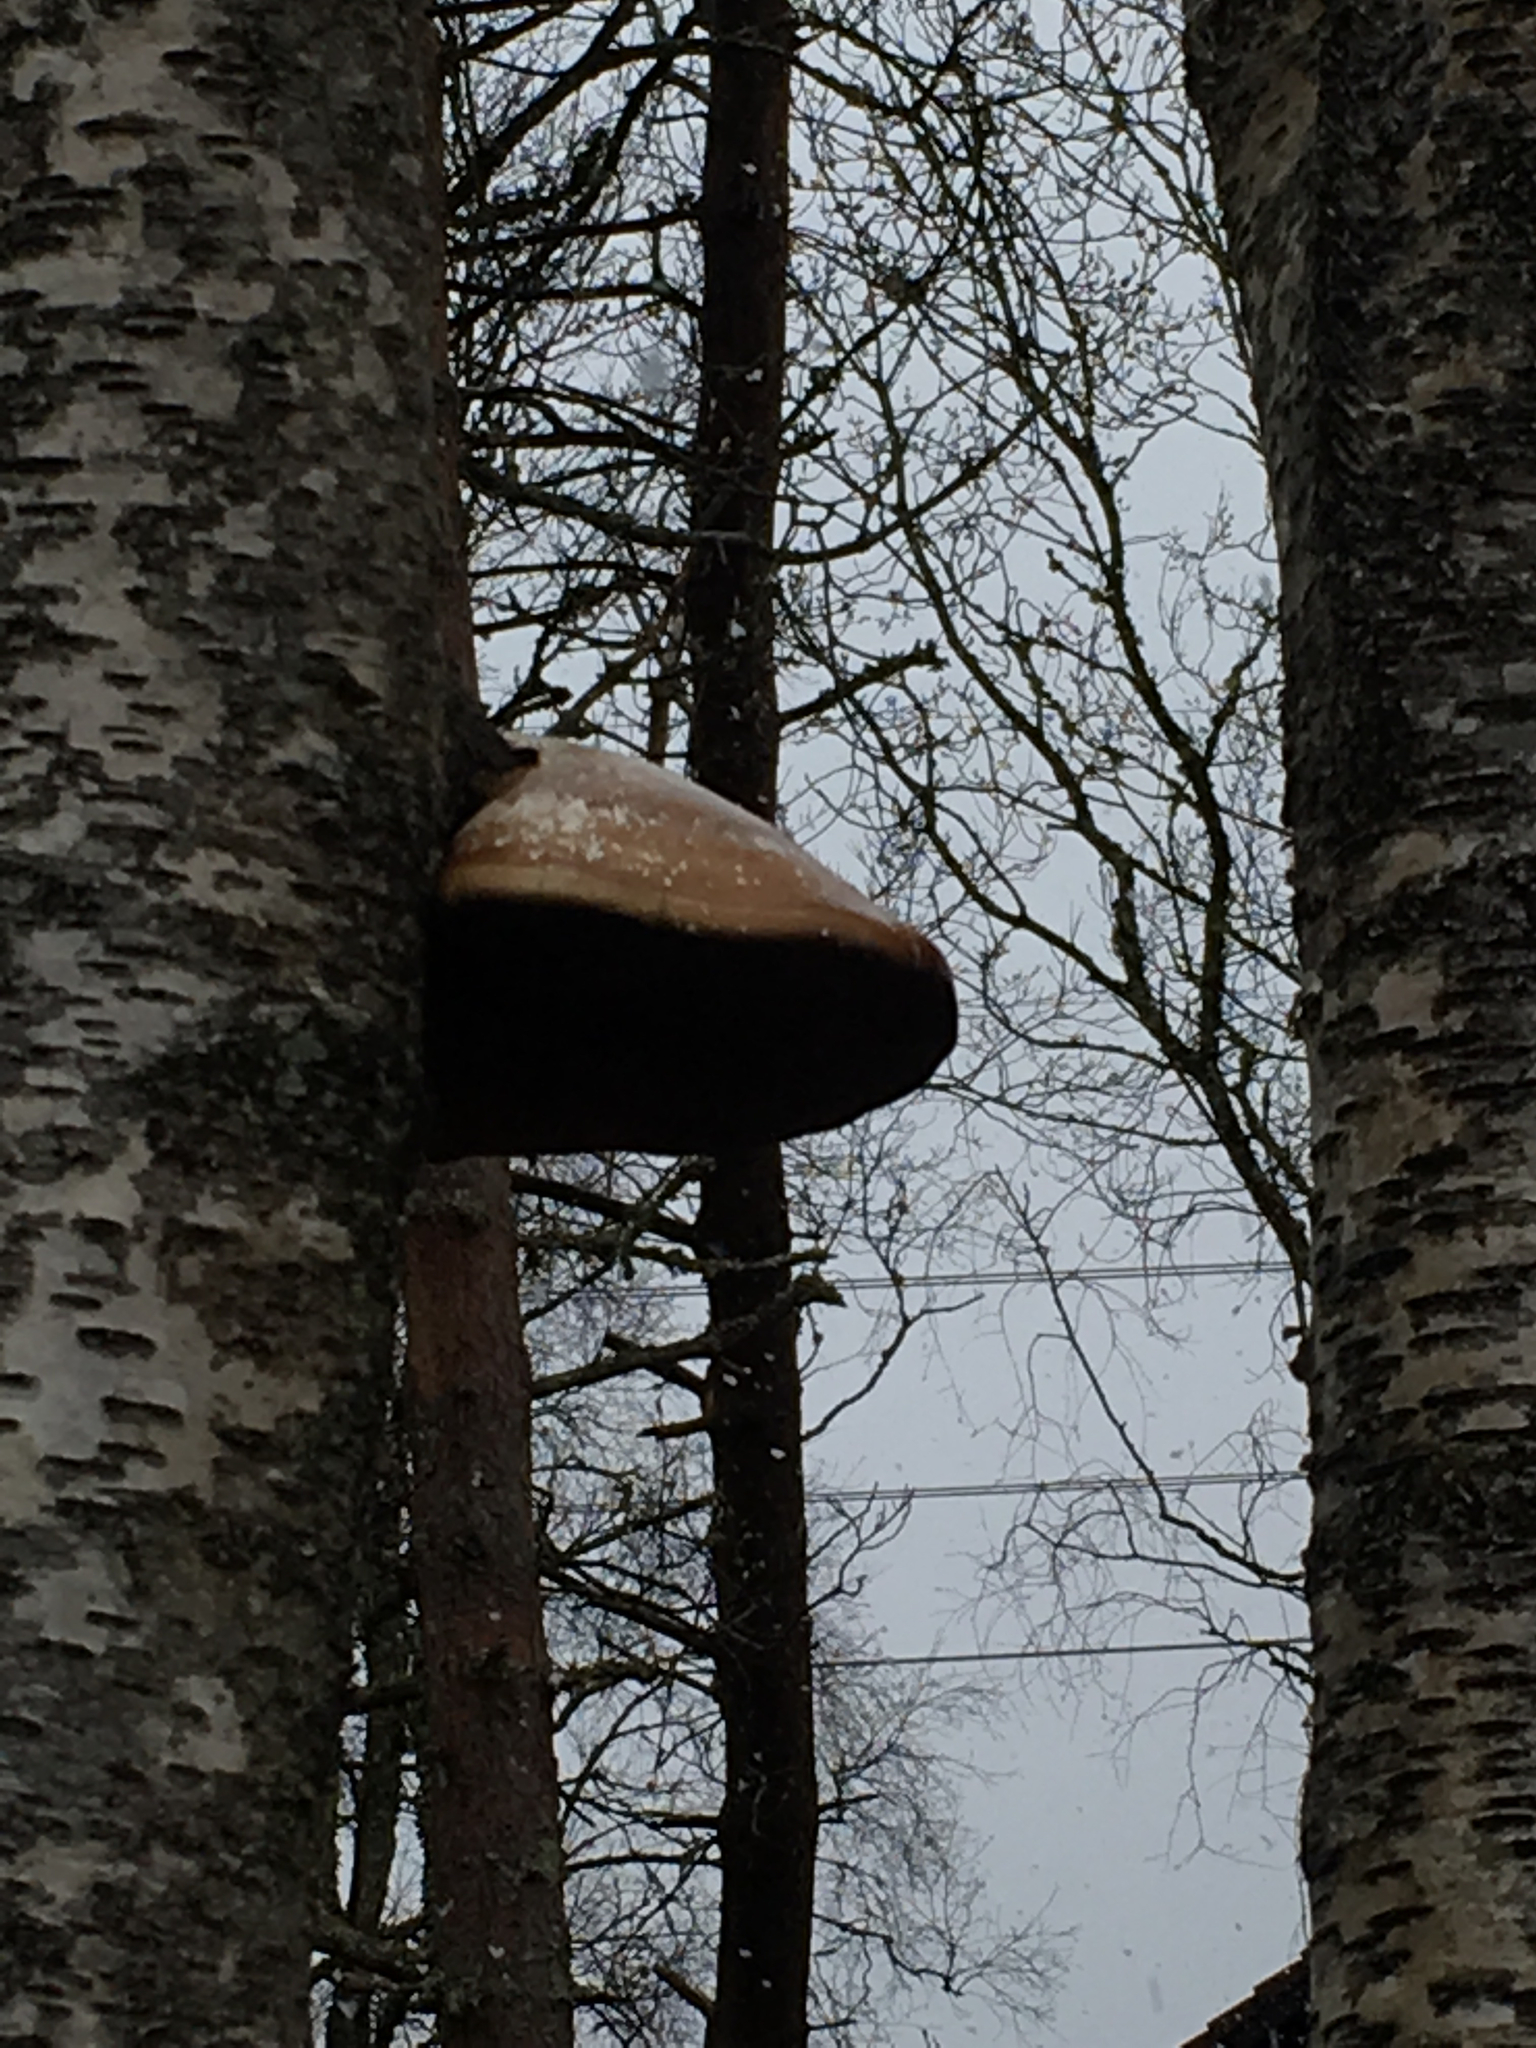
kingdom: Fungi
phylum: Basidiomycota
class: Agaricomycetes
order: Polyporales
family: Fomitopsidaceae
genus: Fomitopsis
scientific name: Fomitopsis betulina
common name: Birch polypore
